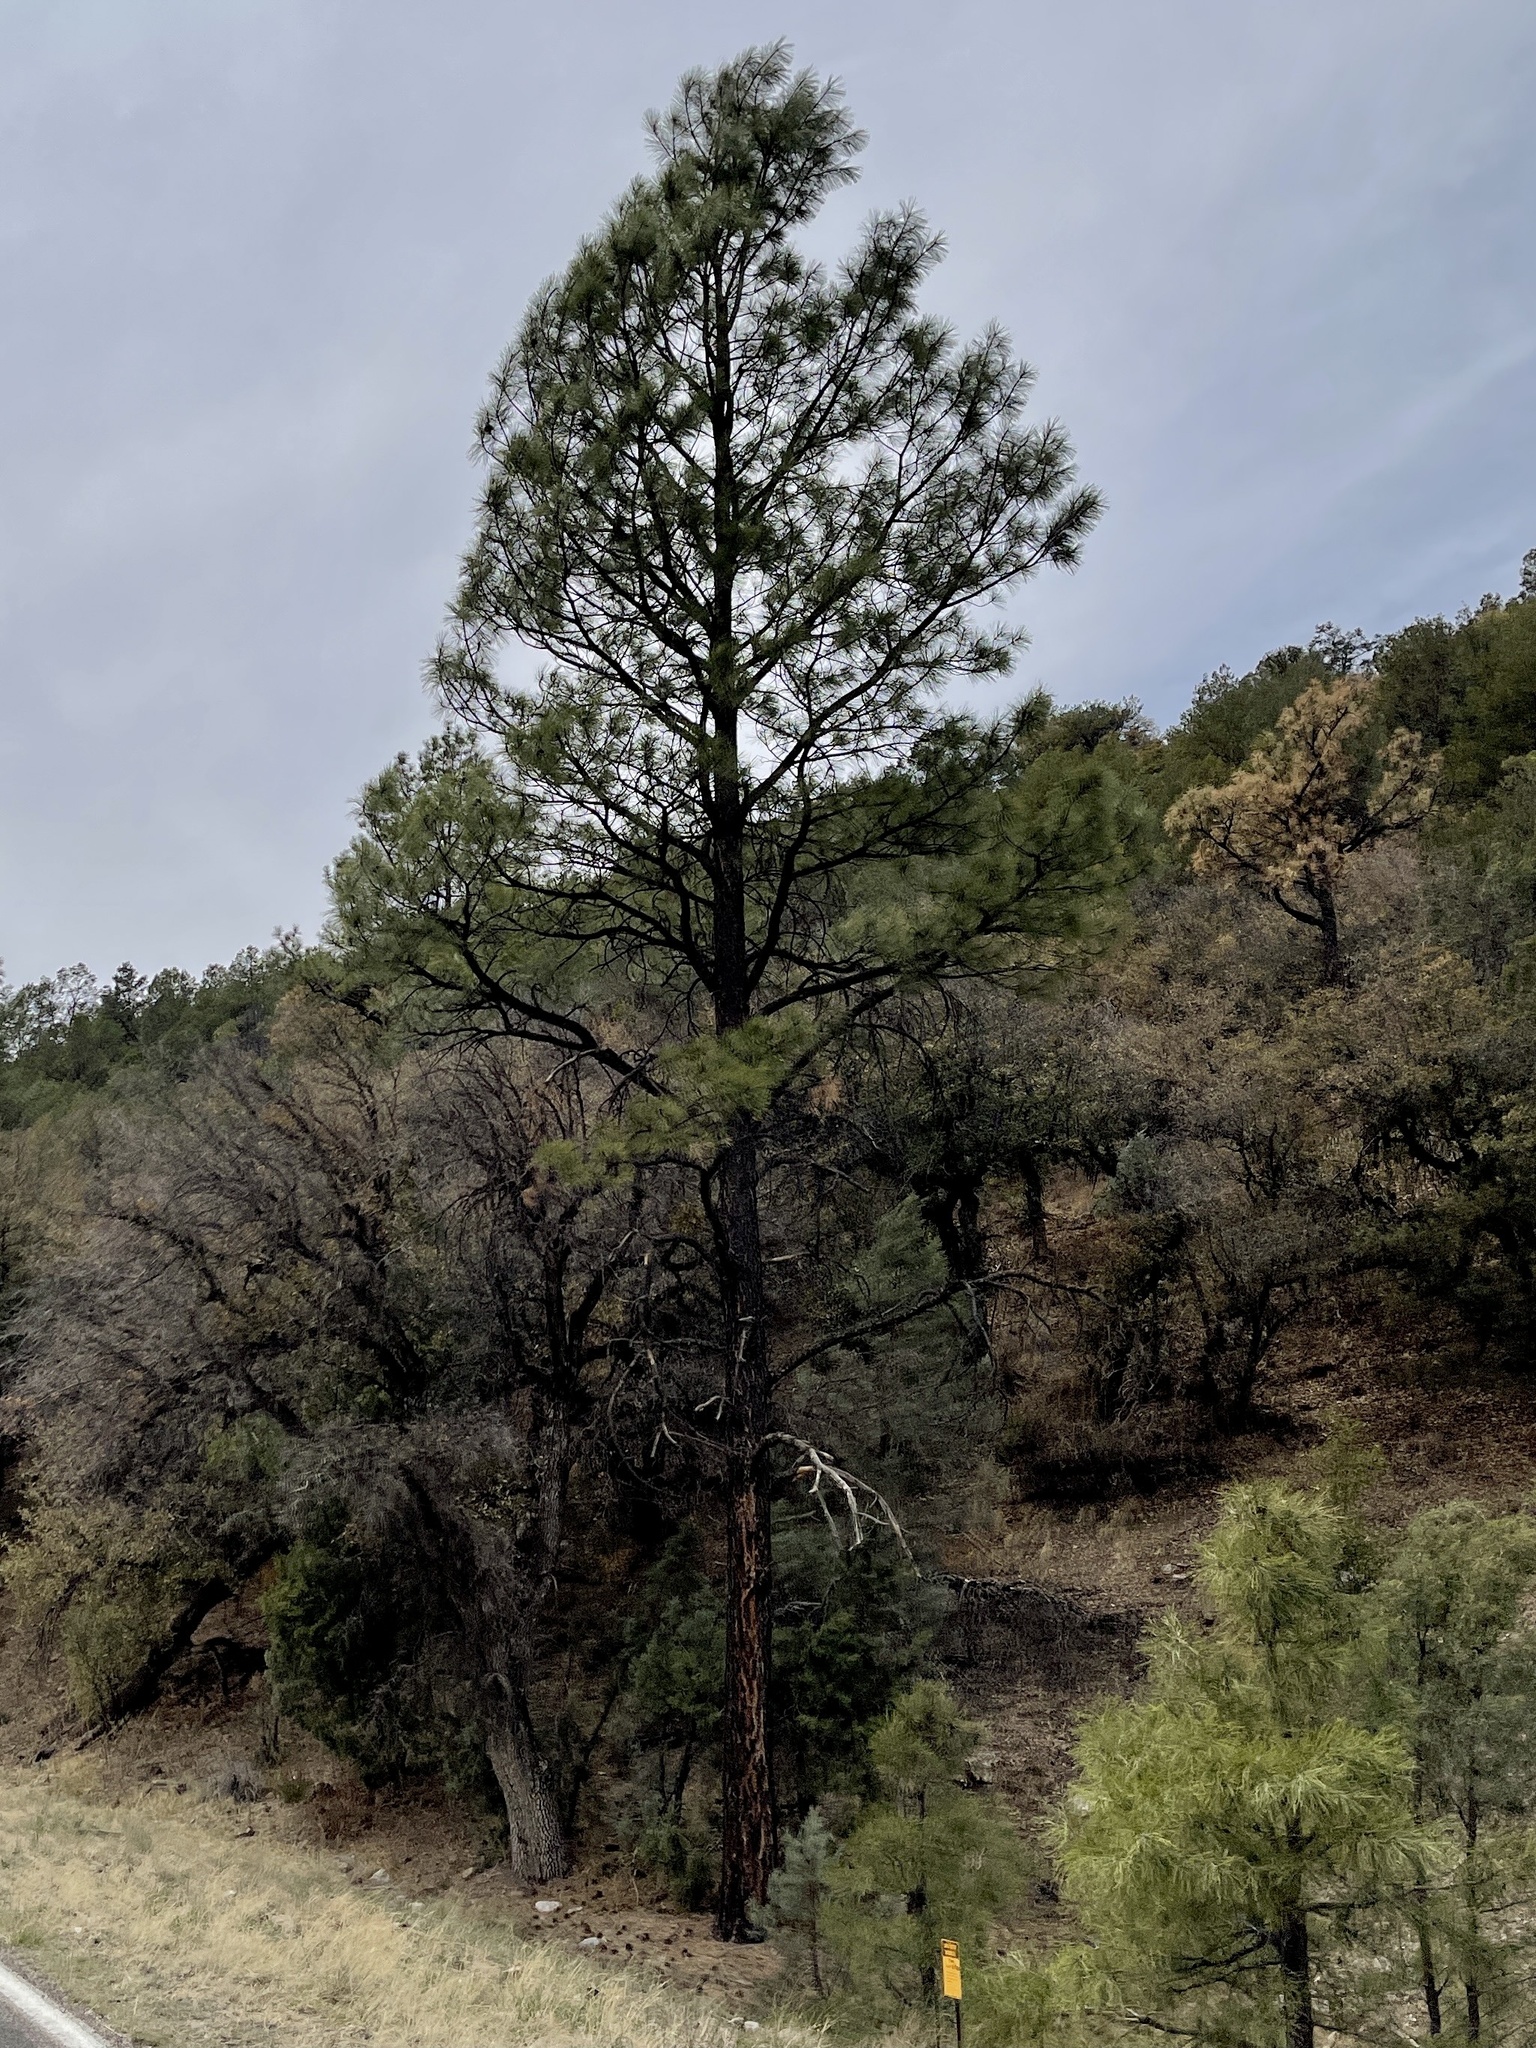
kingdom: Plantae
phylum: Tracheophyta
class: Pinopsida
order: Pinales
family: Pinaceae
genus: Pinus
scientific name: Pinus ponderosa
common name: Western yellow-pine
